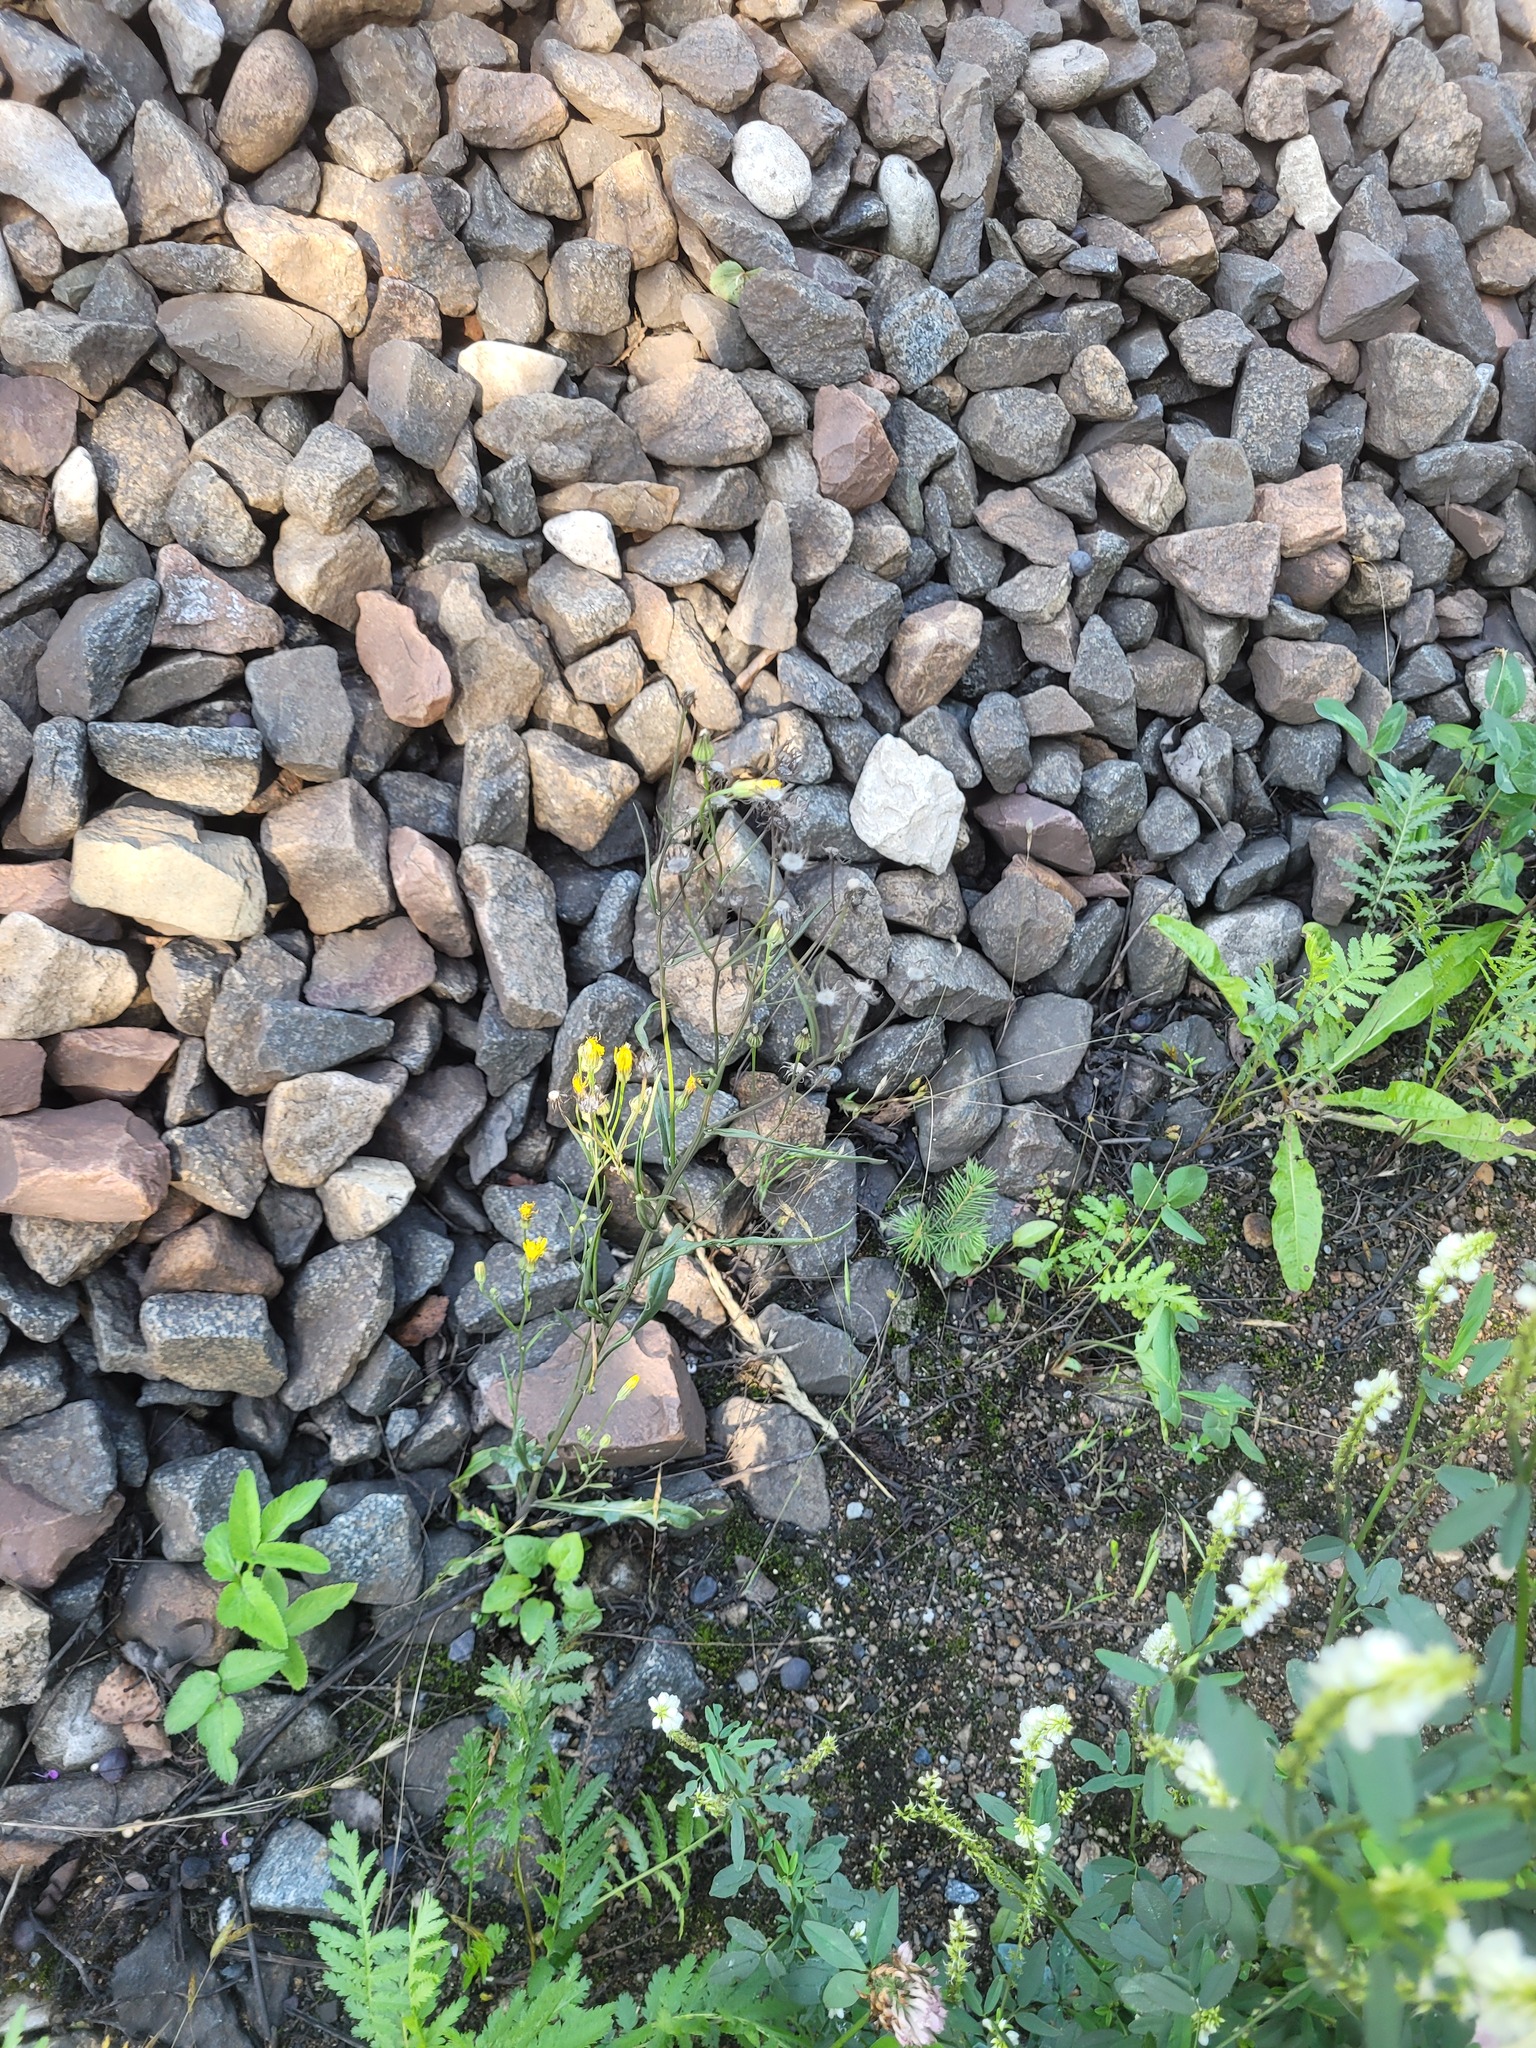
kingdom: Plantae
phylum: Tracheophyta
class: Magnoliopsida
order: Asterales
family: Asteraceae
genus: Crepis
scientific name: Crepis tectorum
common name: Narrow-leaved hawk's-beard
